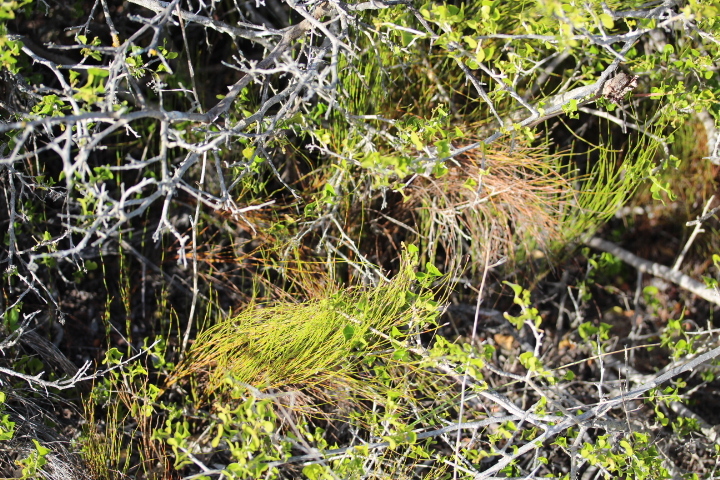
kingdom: Plantae
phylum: Tracheophyta
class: Liliopsida
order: Poales
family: Restionaceae
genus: Restio
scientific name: Restio eleocharis
